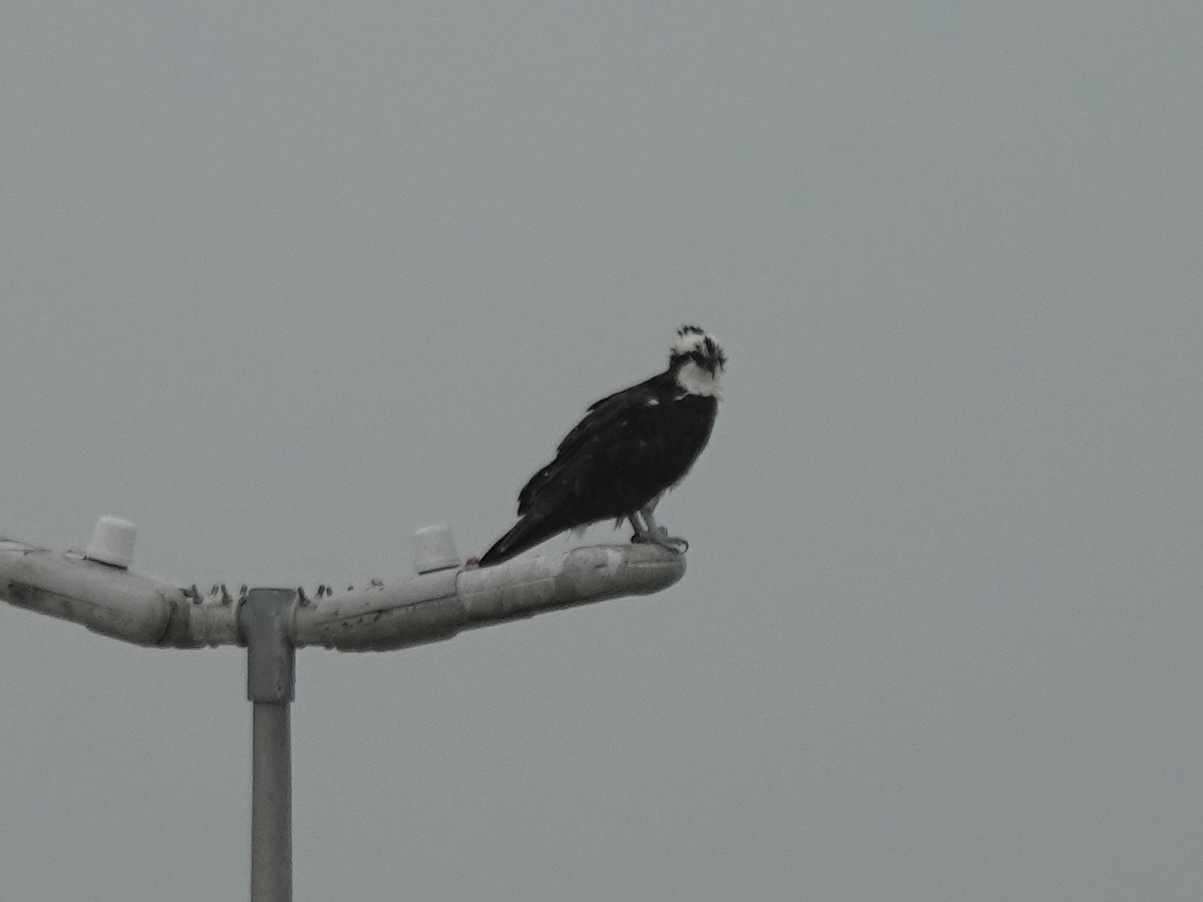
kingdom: Animalia
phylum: Chordata
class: Aves
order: Accipitriformes
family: Pandionidae
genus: Pandion
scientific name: Pandion haliaetus
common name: Osprey
